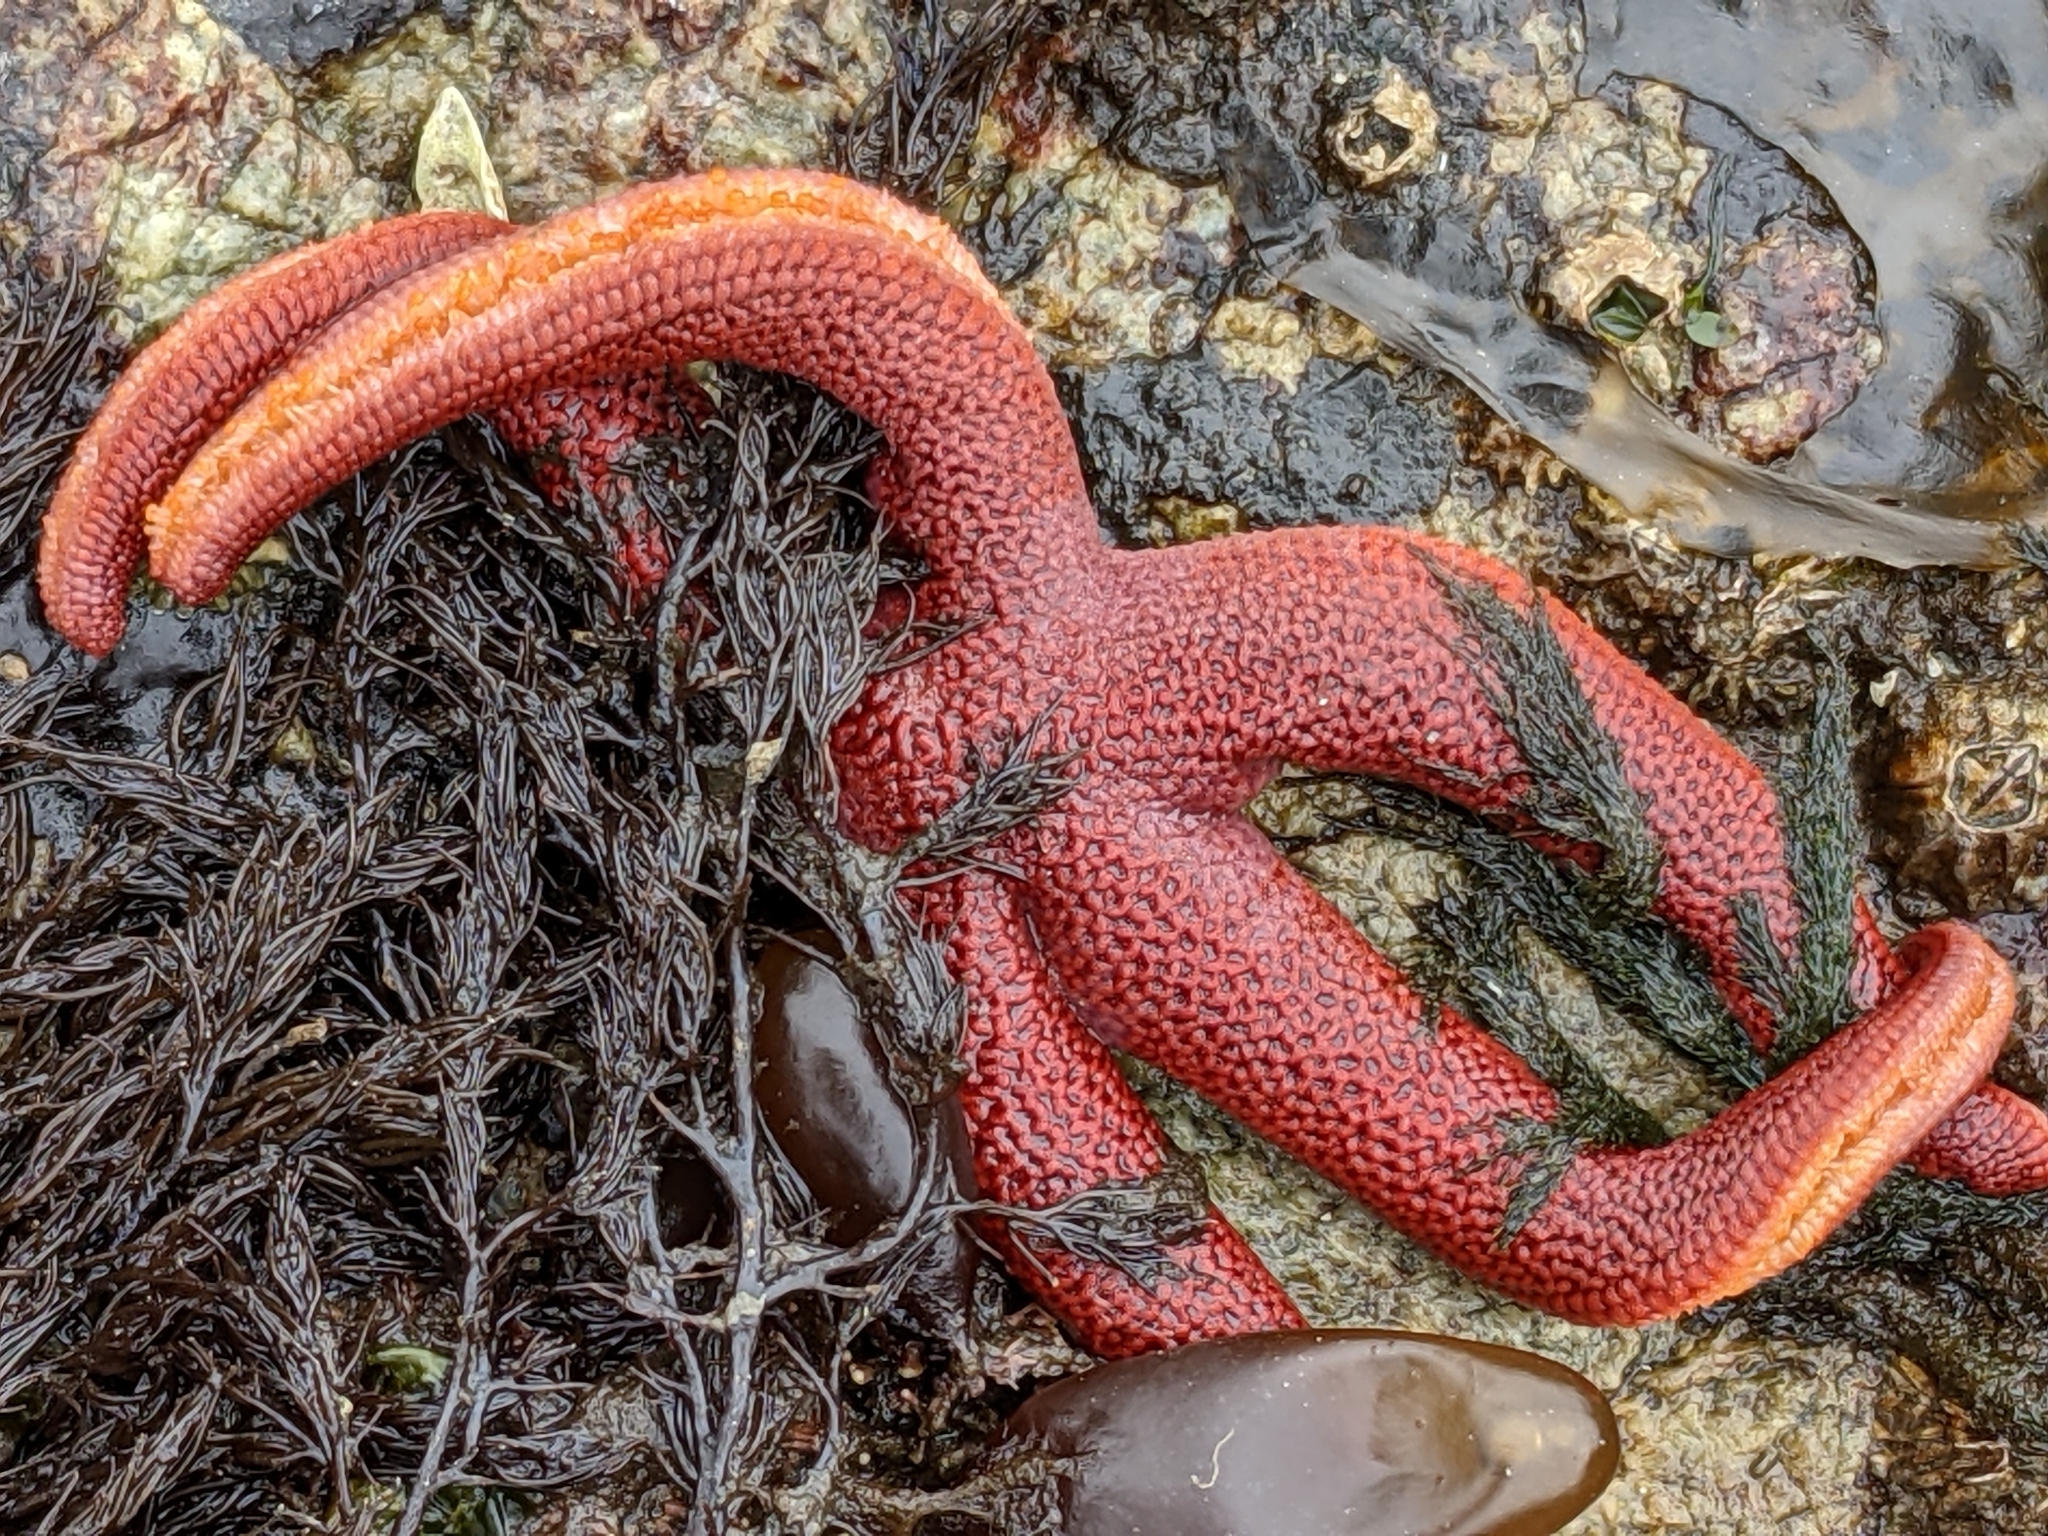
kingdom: Animalia
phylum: Echinodermata
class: Asteroidea
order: Spinulosida
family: Echinasteridae
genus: Henricia
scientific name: Henricia leviuscula
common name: Pacific blood star
